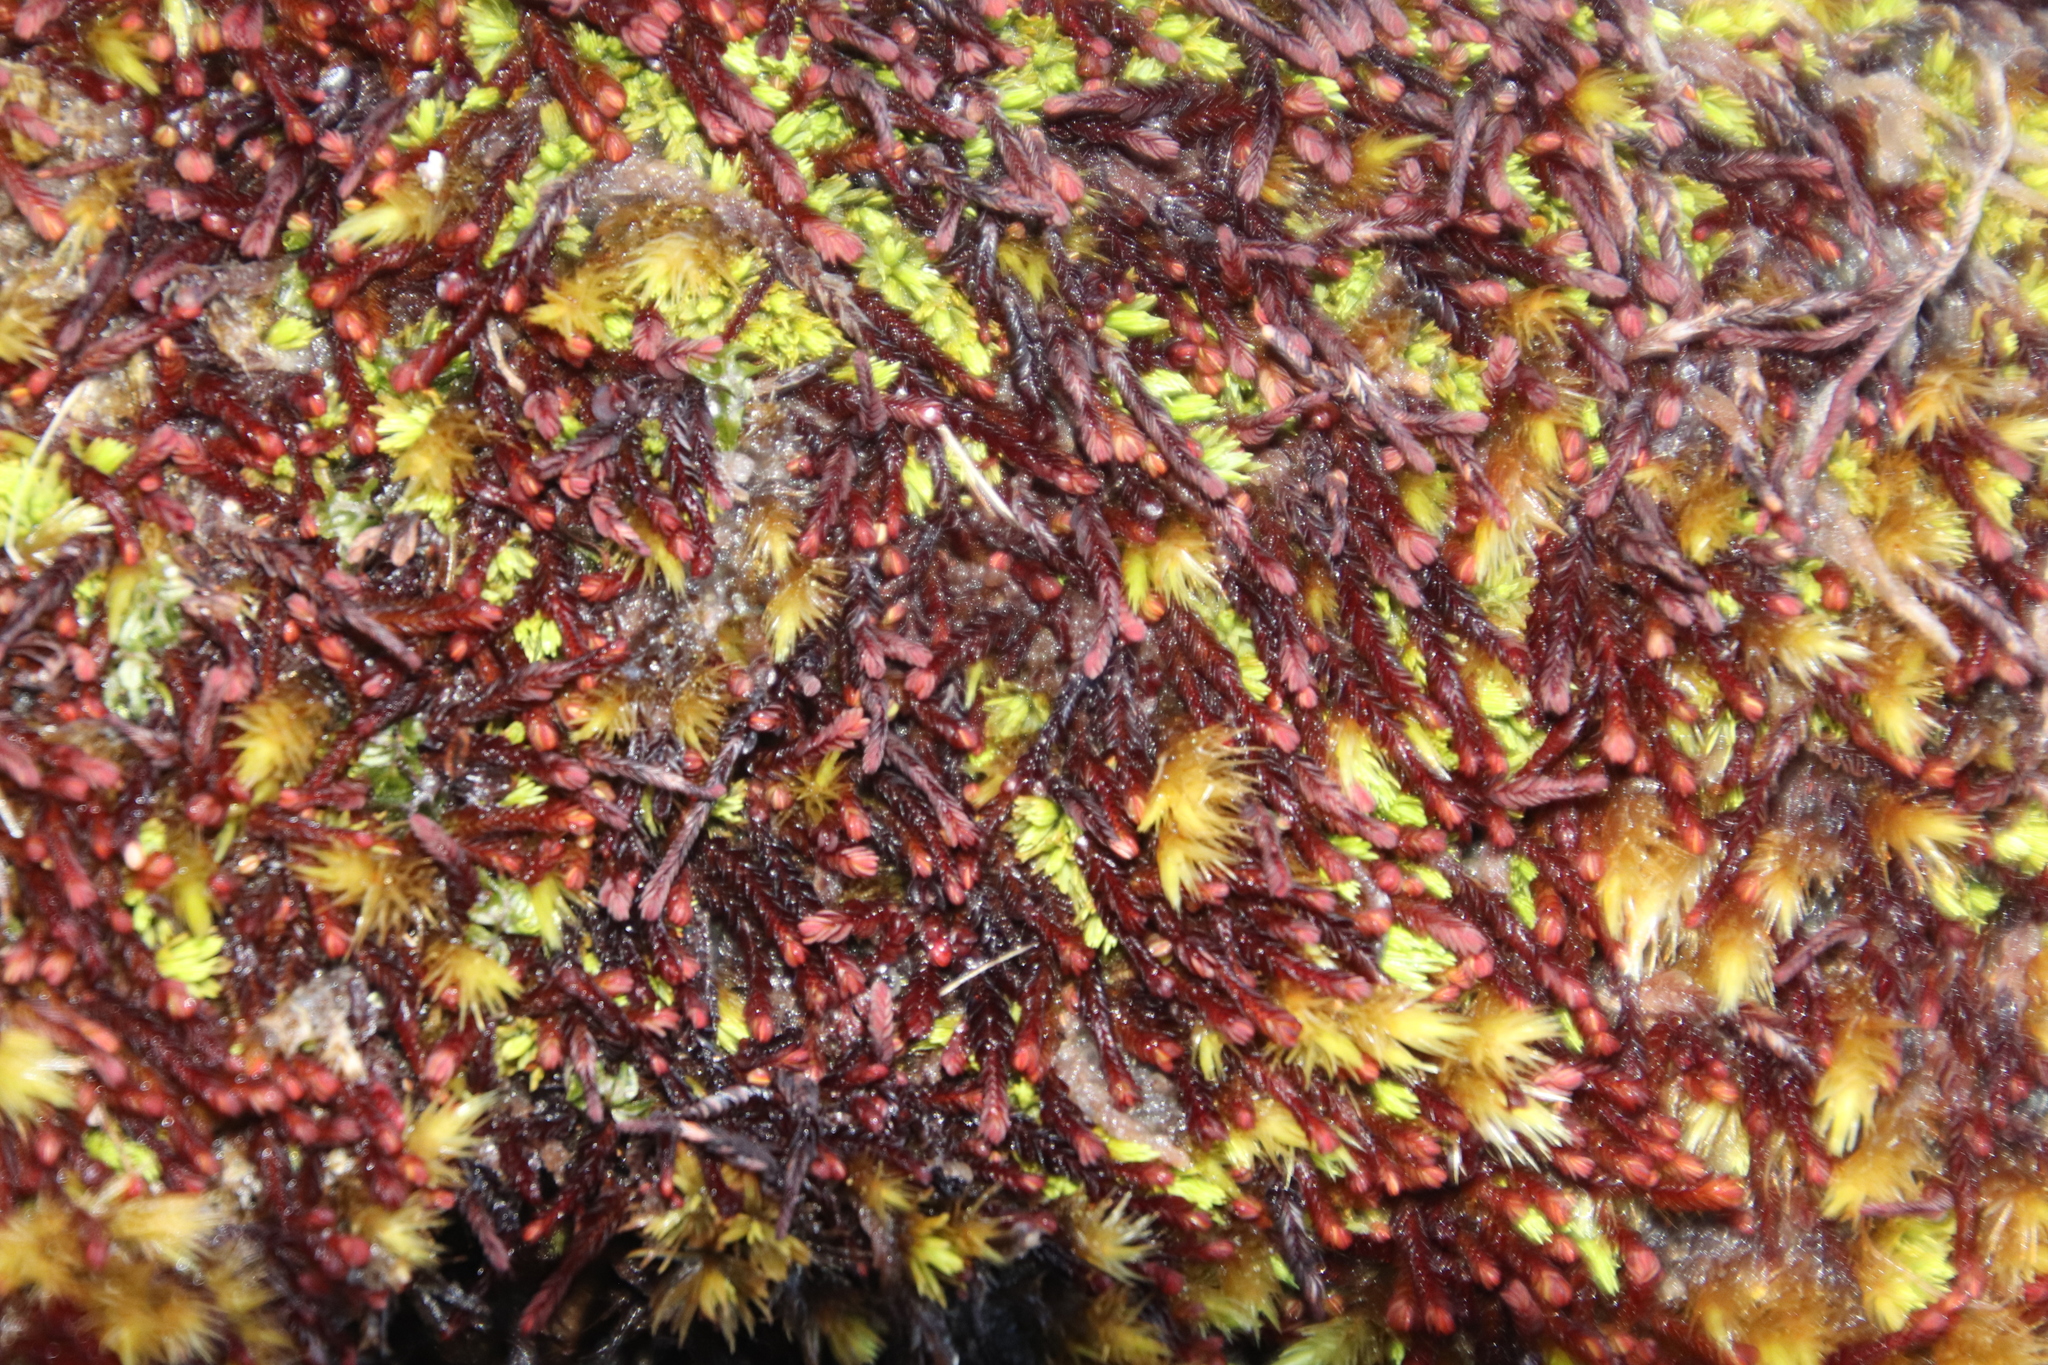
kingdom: Plantae
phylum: Marchantiophyta
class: Jungermanniopsida
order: Jungermanniales
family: Adelanthaceae
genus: Syzygiella
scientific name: Syzygiella colorata
